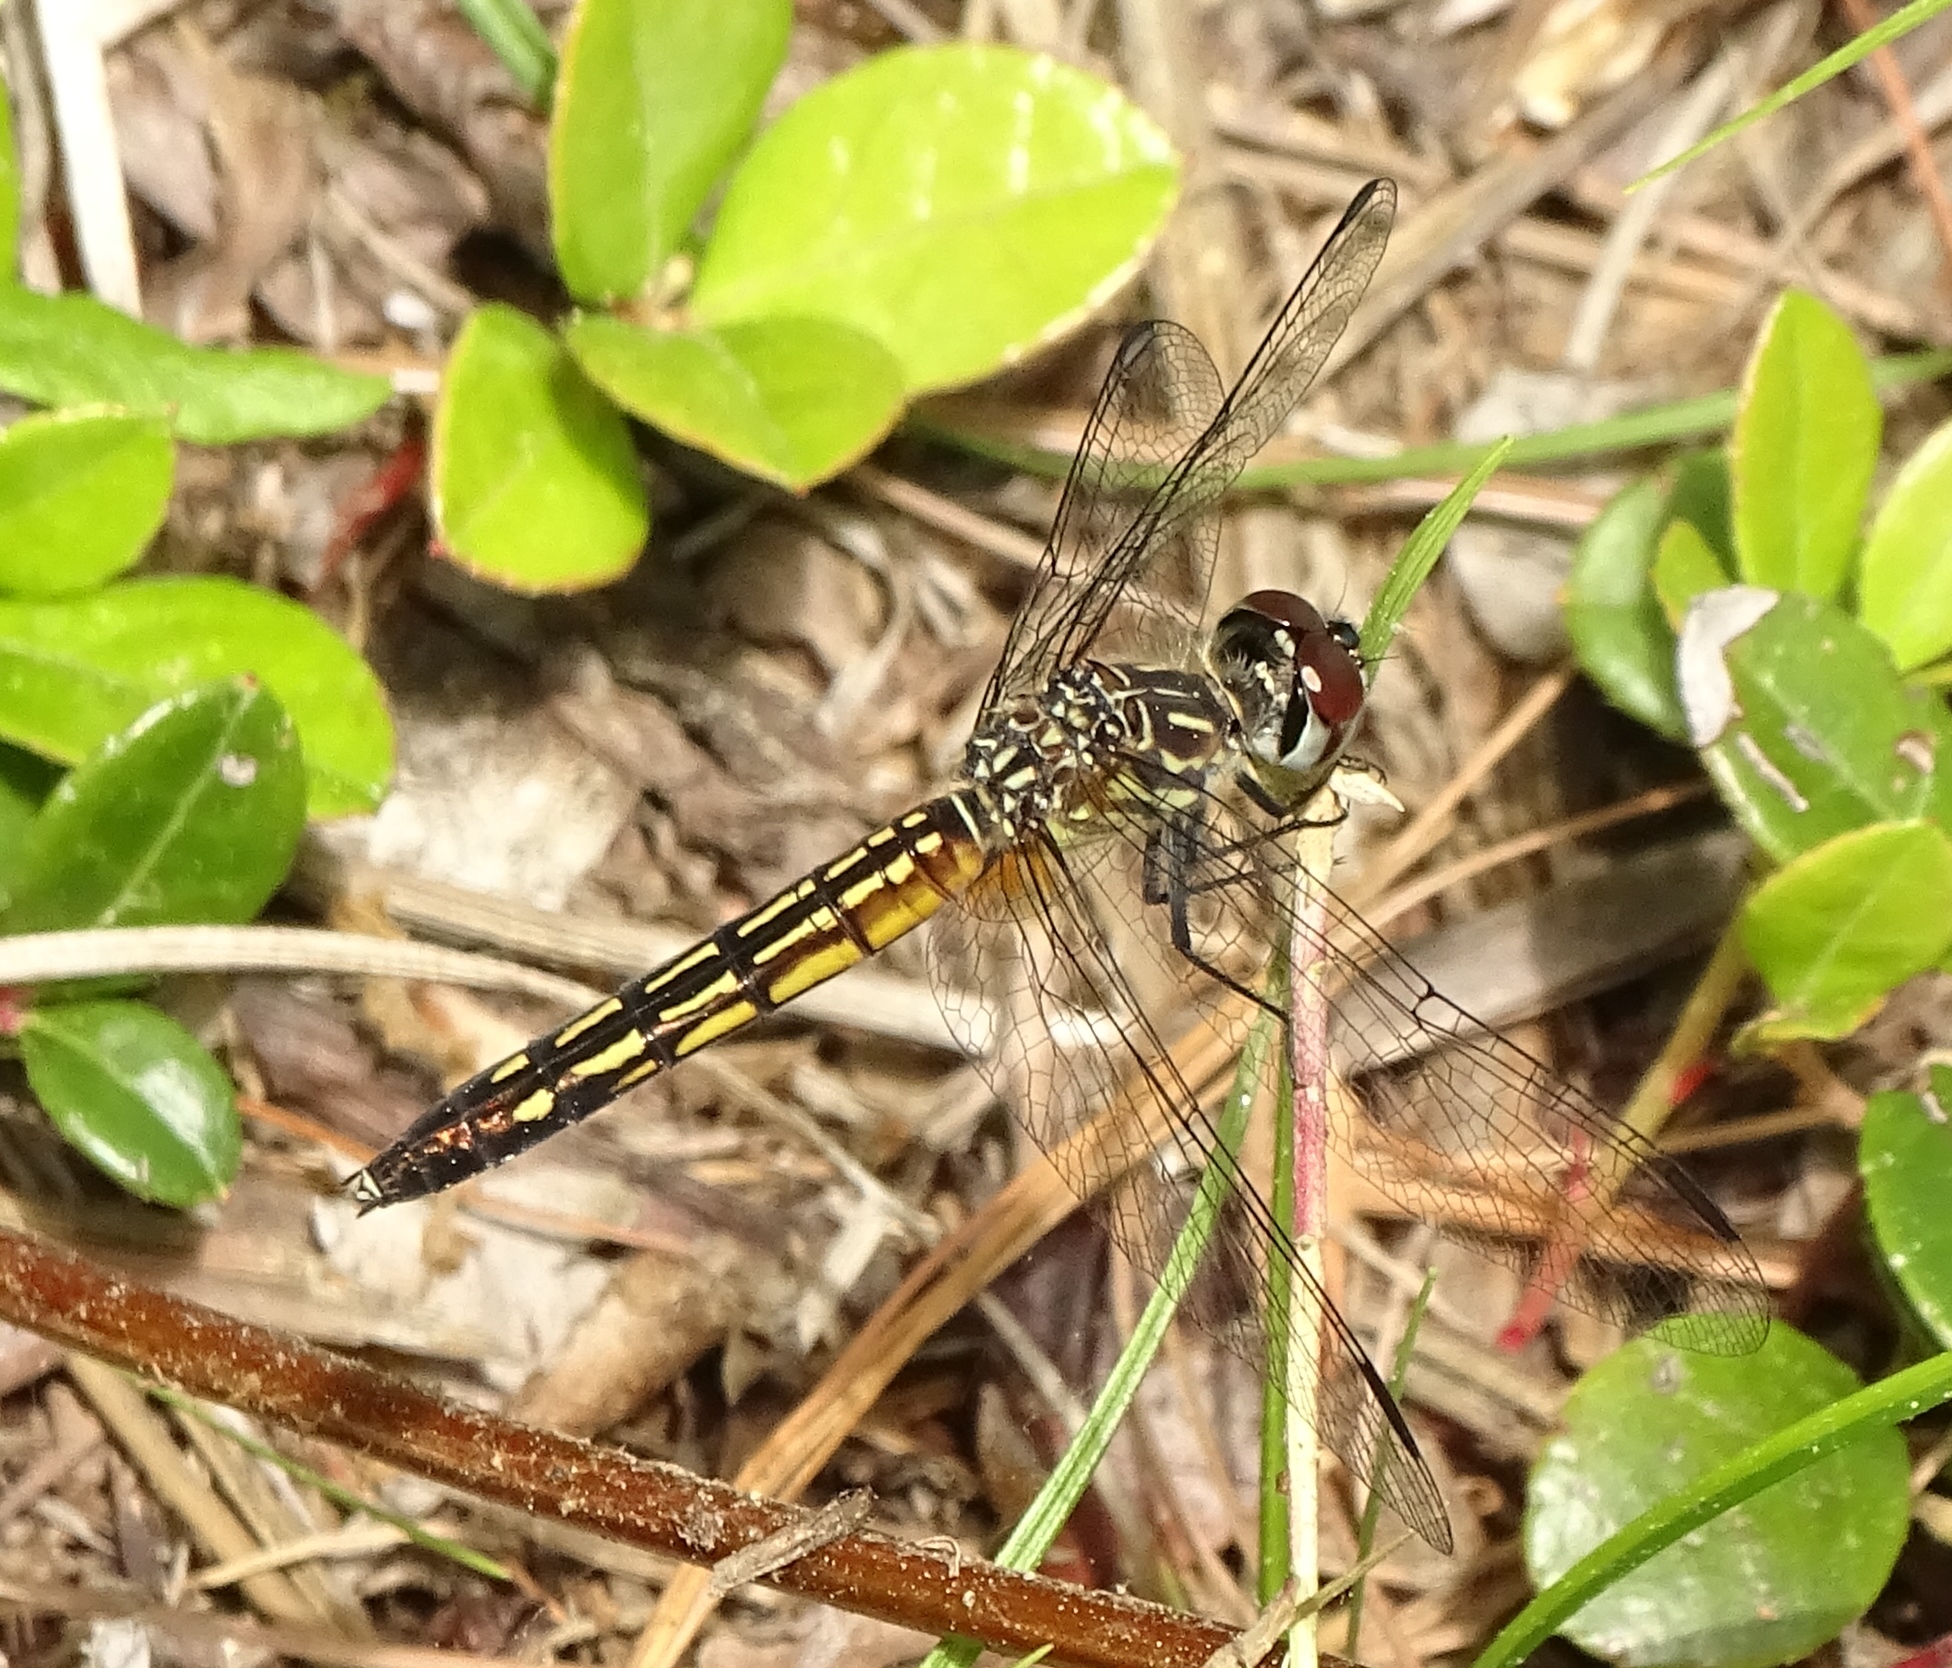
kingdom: Animalia
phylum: Arthropoda
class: Insecta
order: Odonata
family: Libellulidae
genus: Pachydiplax
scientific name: Pachydiplax longipennis
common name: Blue dasher
